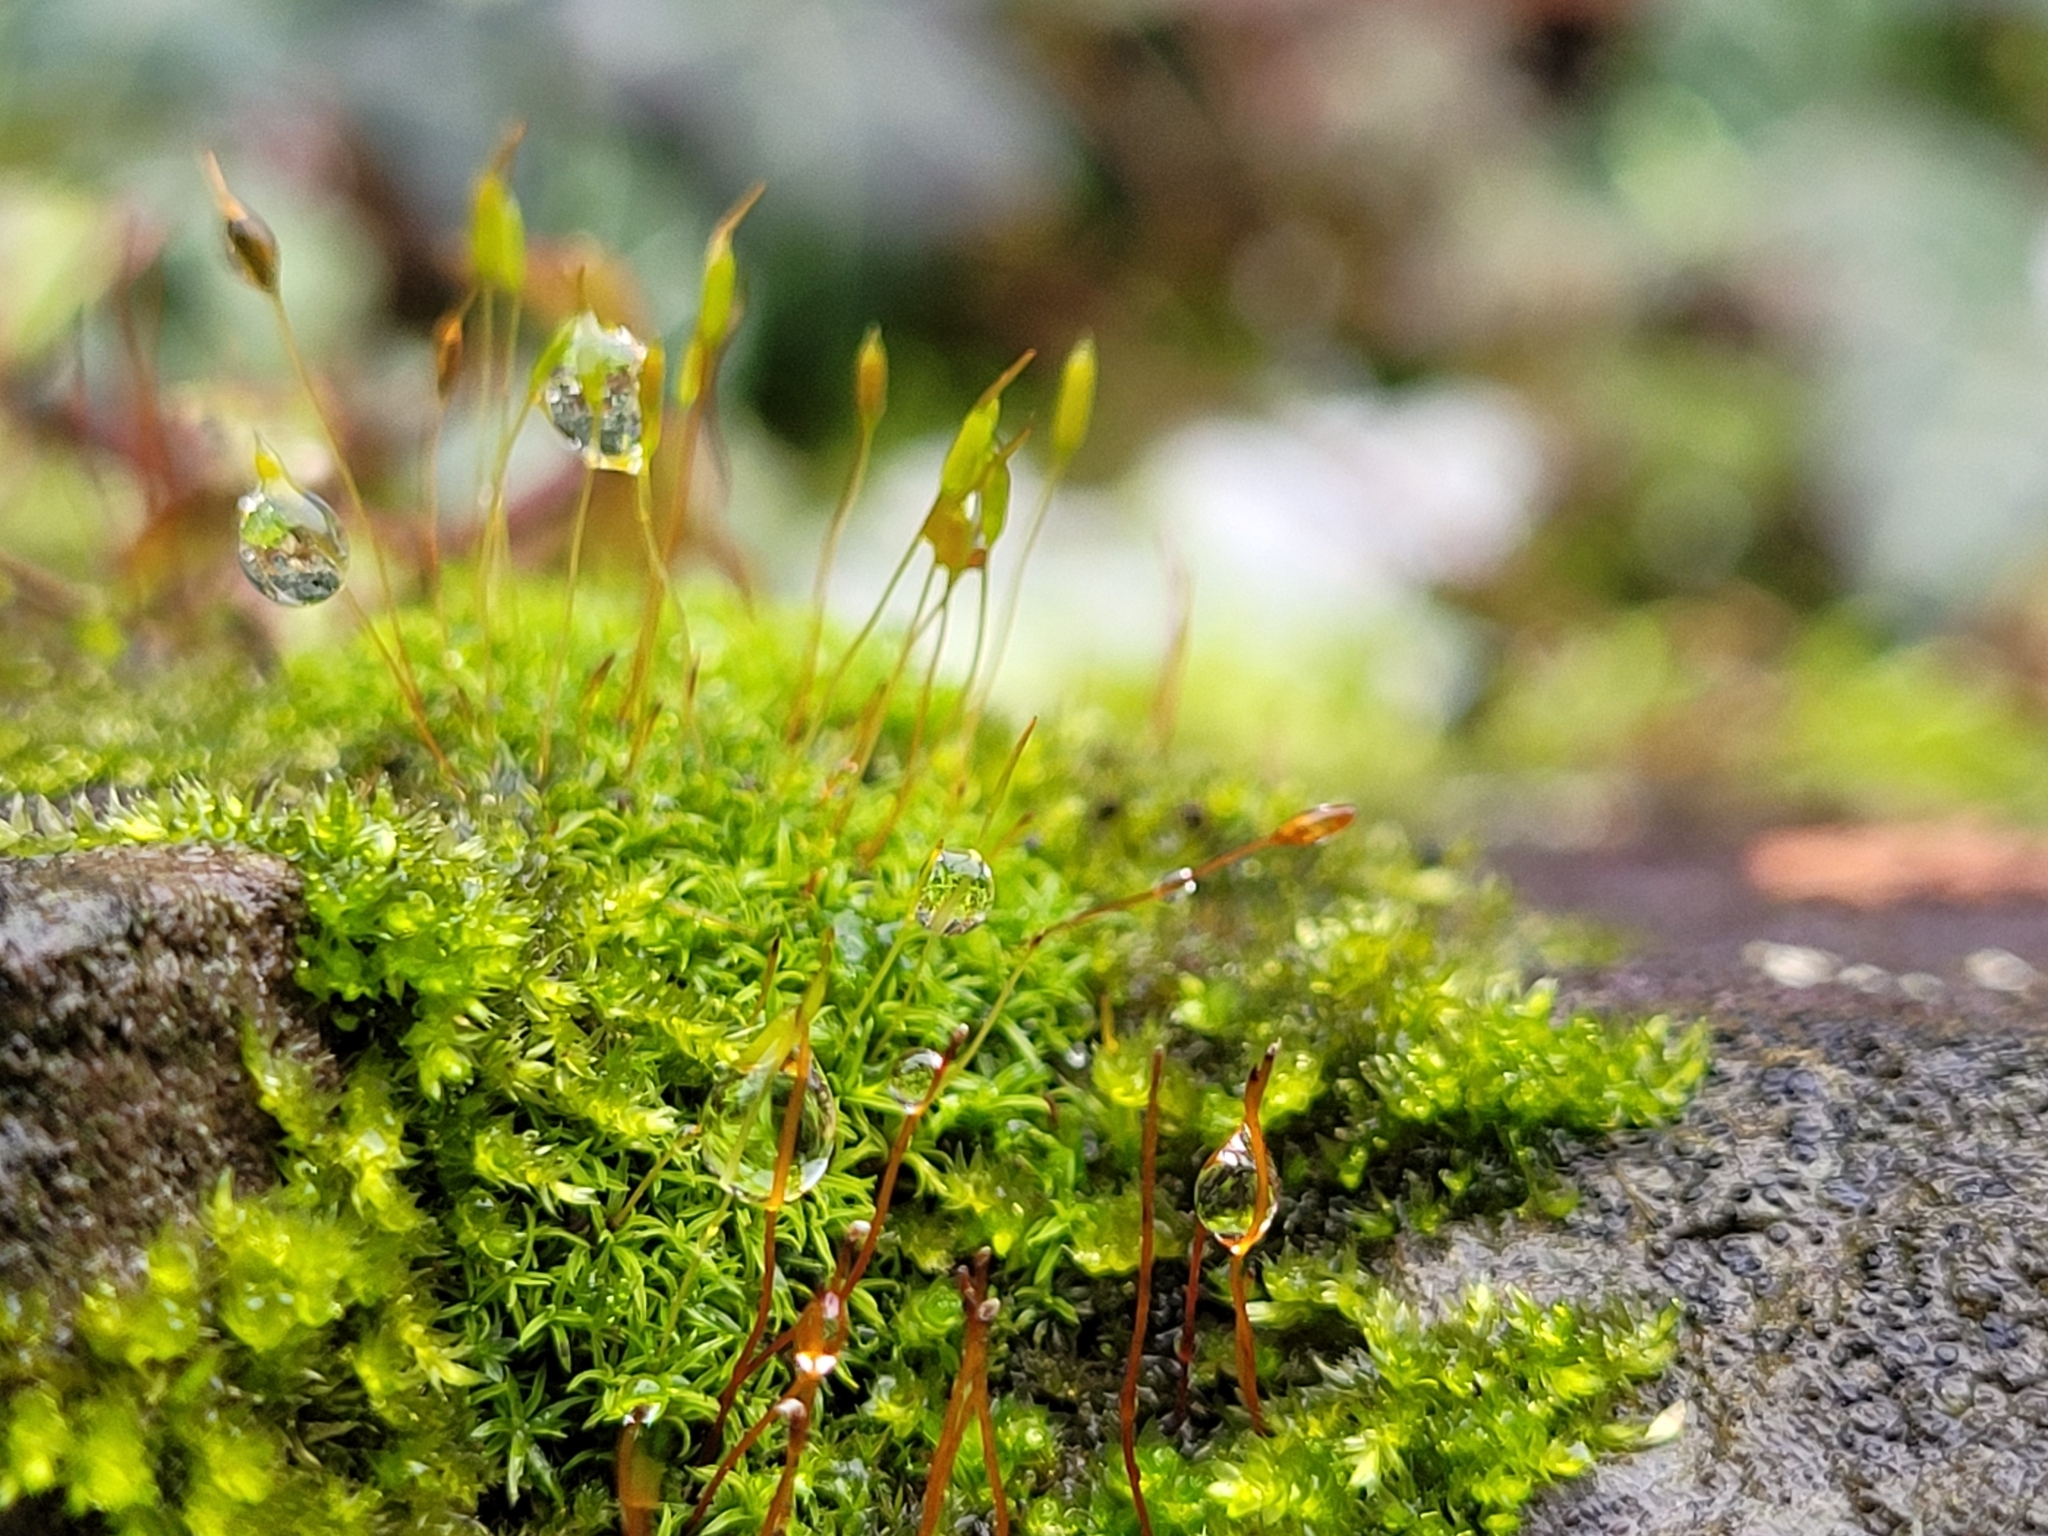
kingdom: Plantae
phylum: Bryophyta
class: Bryopsida
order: Pottiales
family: Pottiaceae
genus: Bryoerythrophyllum
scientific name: Bryoerythrophyllum recurvirostrum
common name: Red beard moss
